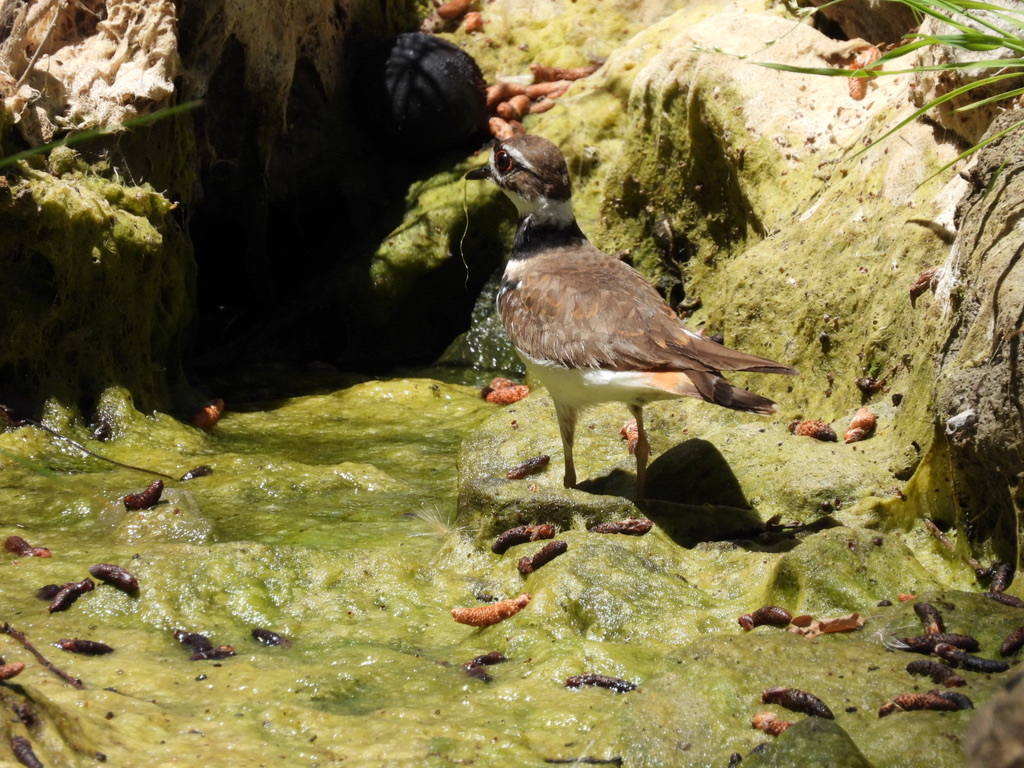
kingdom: Animalia
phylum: Chordata
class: Aves
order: Charadriiformes
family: Charadriidae
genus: Charadrius
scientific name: Charadrius vociferus
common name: Killdeer
